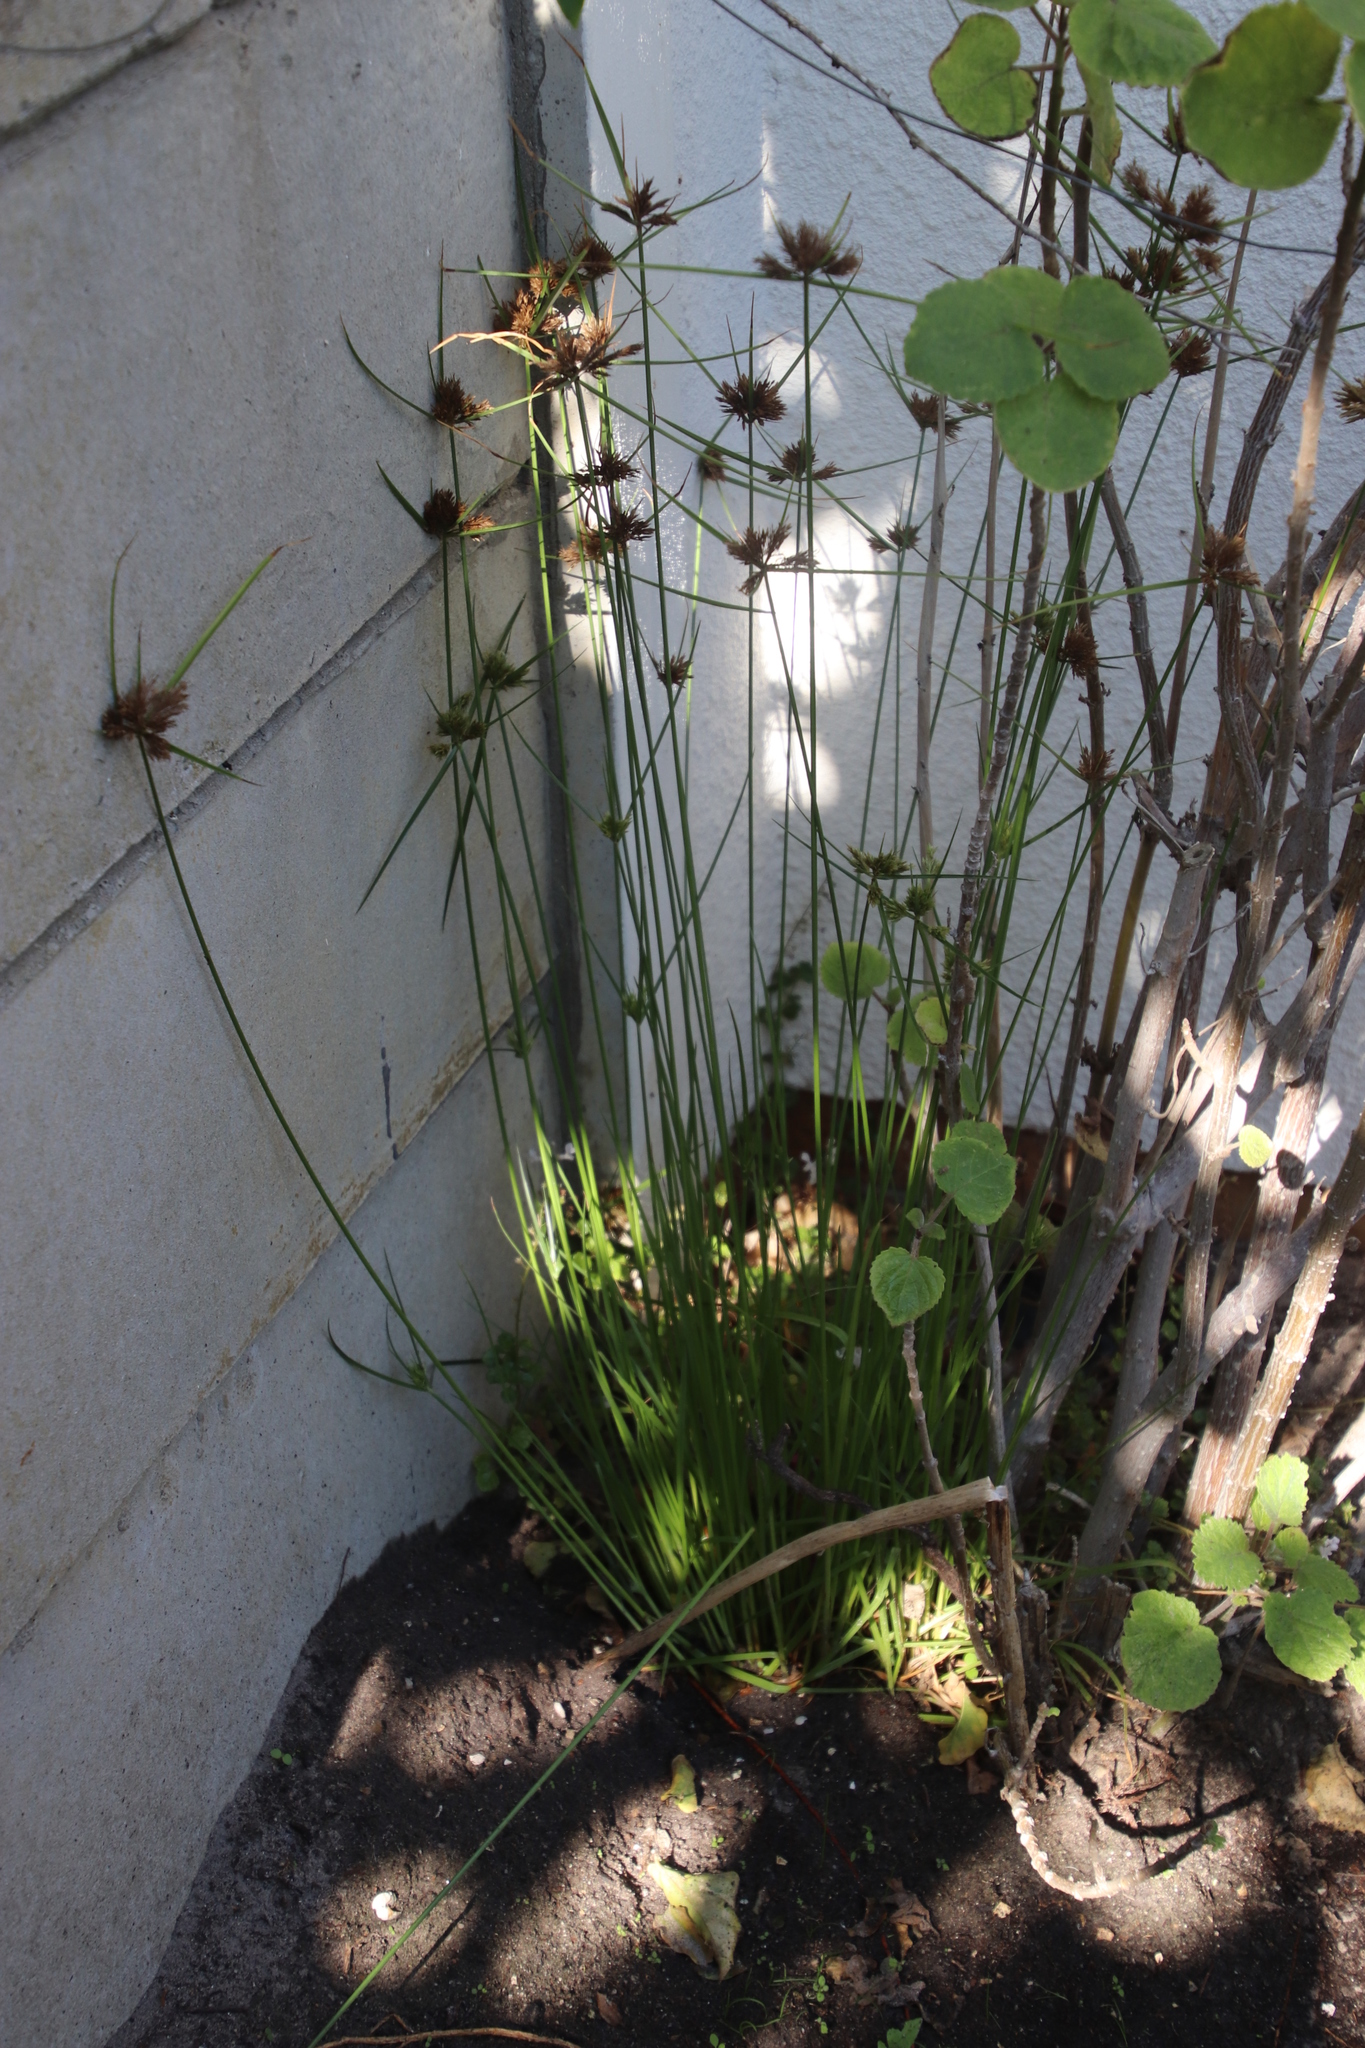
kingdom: Plantae
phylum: Tracheophyta
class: Liliopsida
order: Poales
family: Cyperaceae
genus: Cyperus
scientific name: Cyperus polystachyos
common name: Bunchy flat sedge
